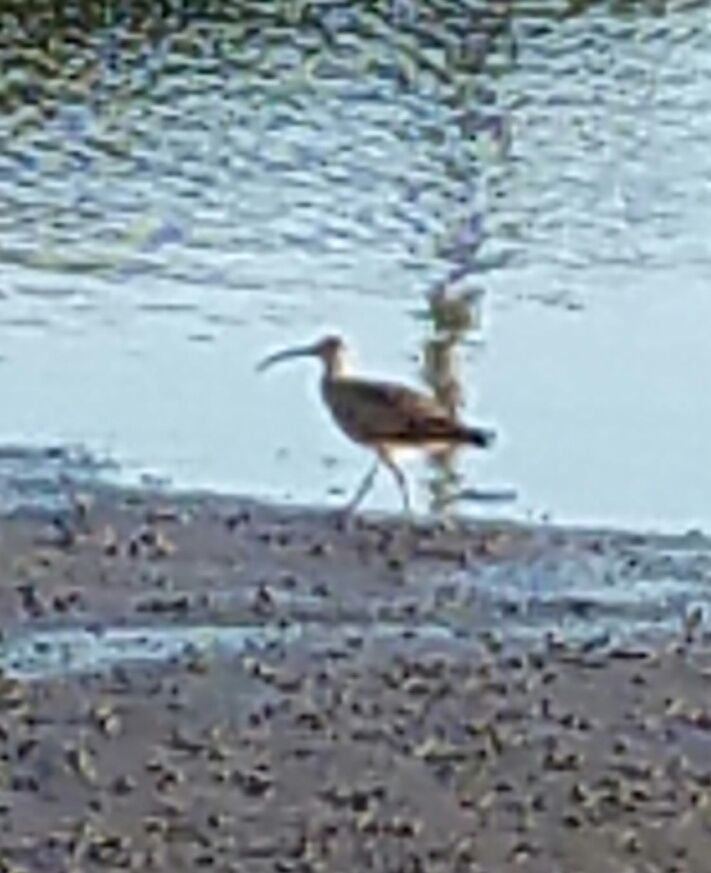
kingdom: Animalia
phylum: Chordata
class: Aves
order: Charadriiformes
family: Scolopacidae
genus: Numenius
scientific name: Numenius phaeopus
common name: Whimbrel
